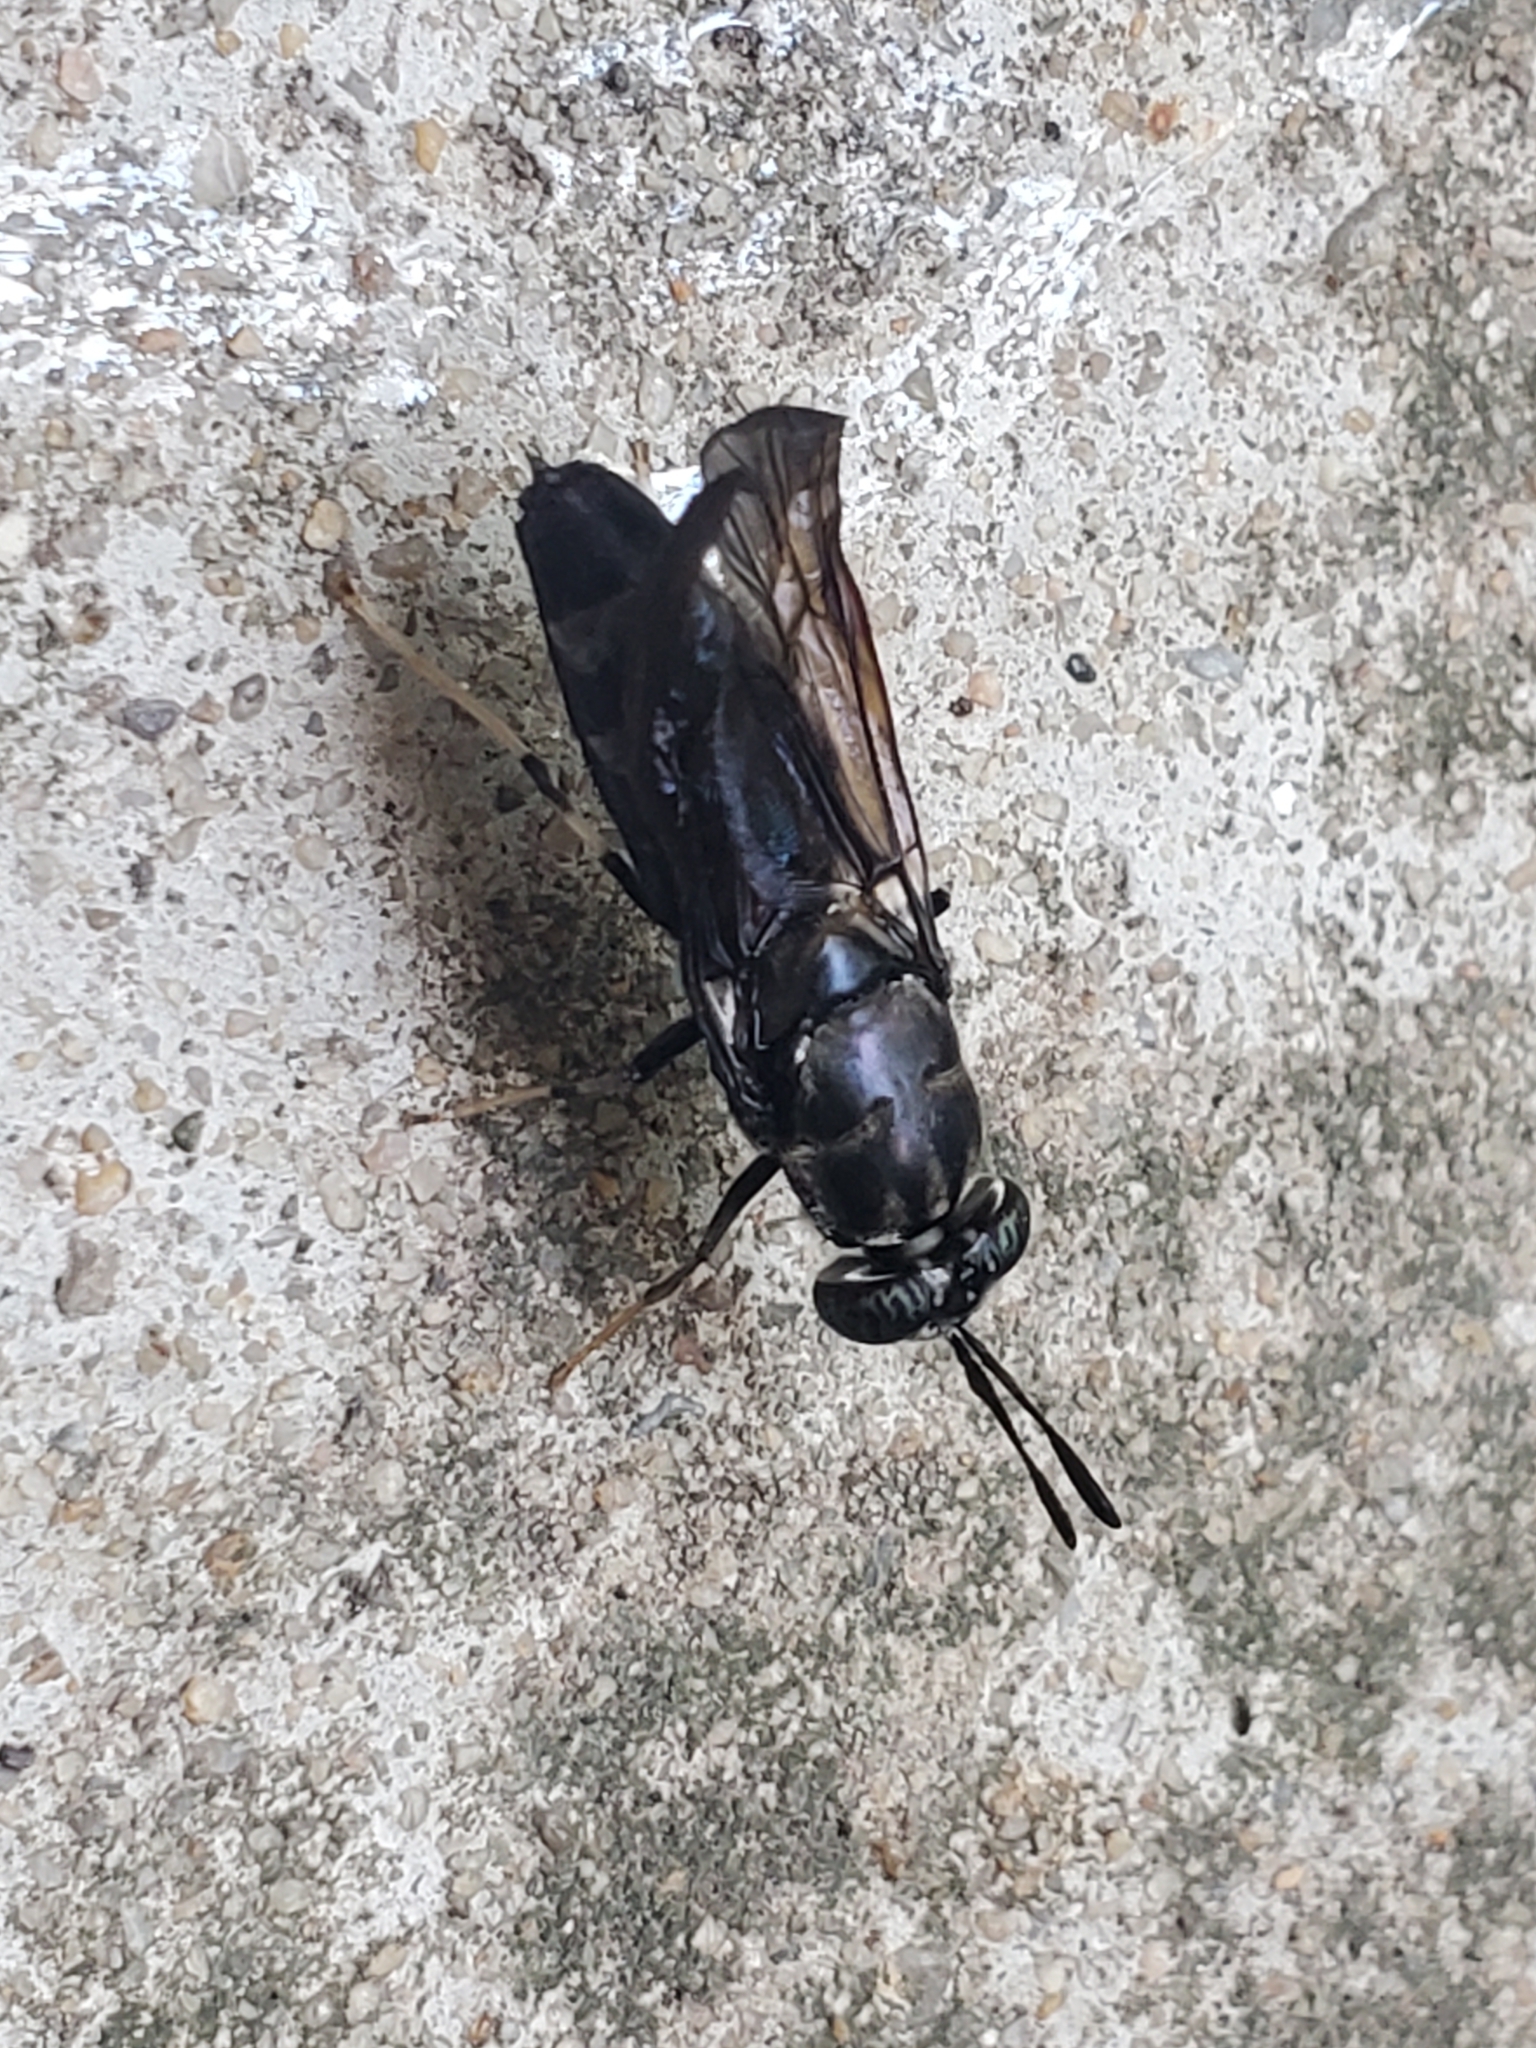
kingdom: Animalia
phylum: Arthropoda
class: Insecta
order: Diptera
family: Stratiomyidae
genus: Hermetia
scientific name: Hermetia illucens
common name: Black soldier fly
